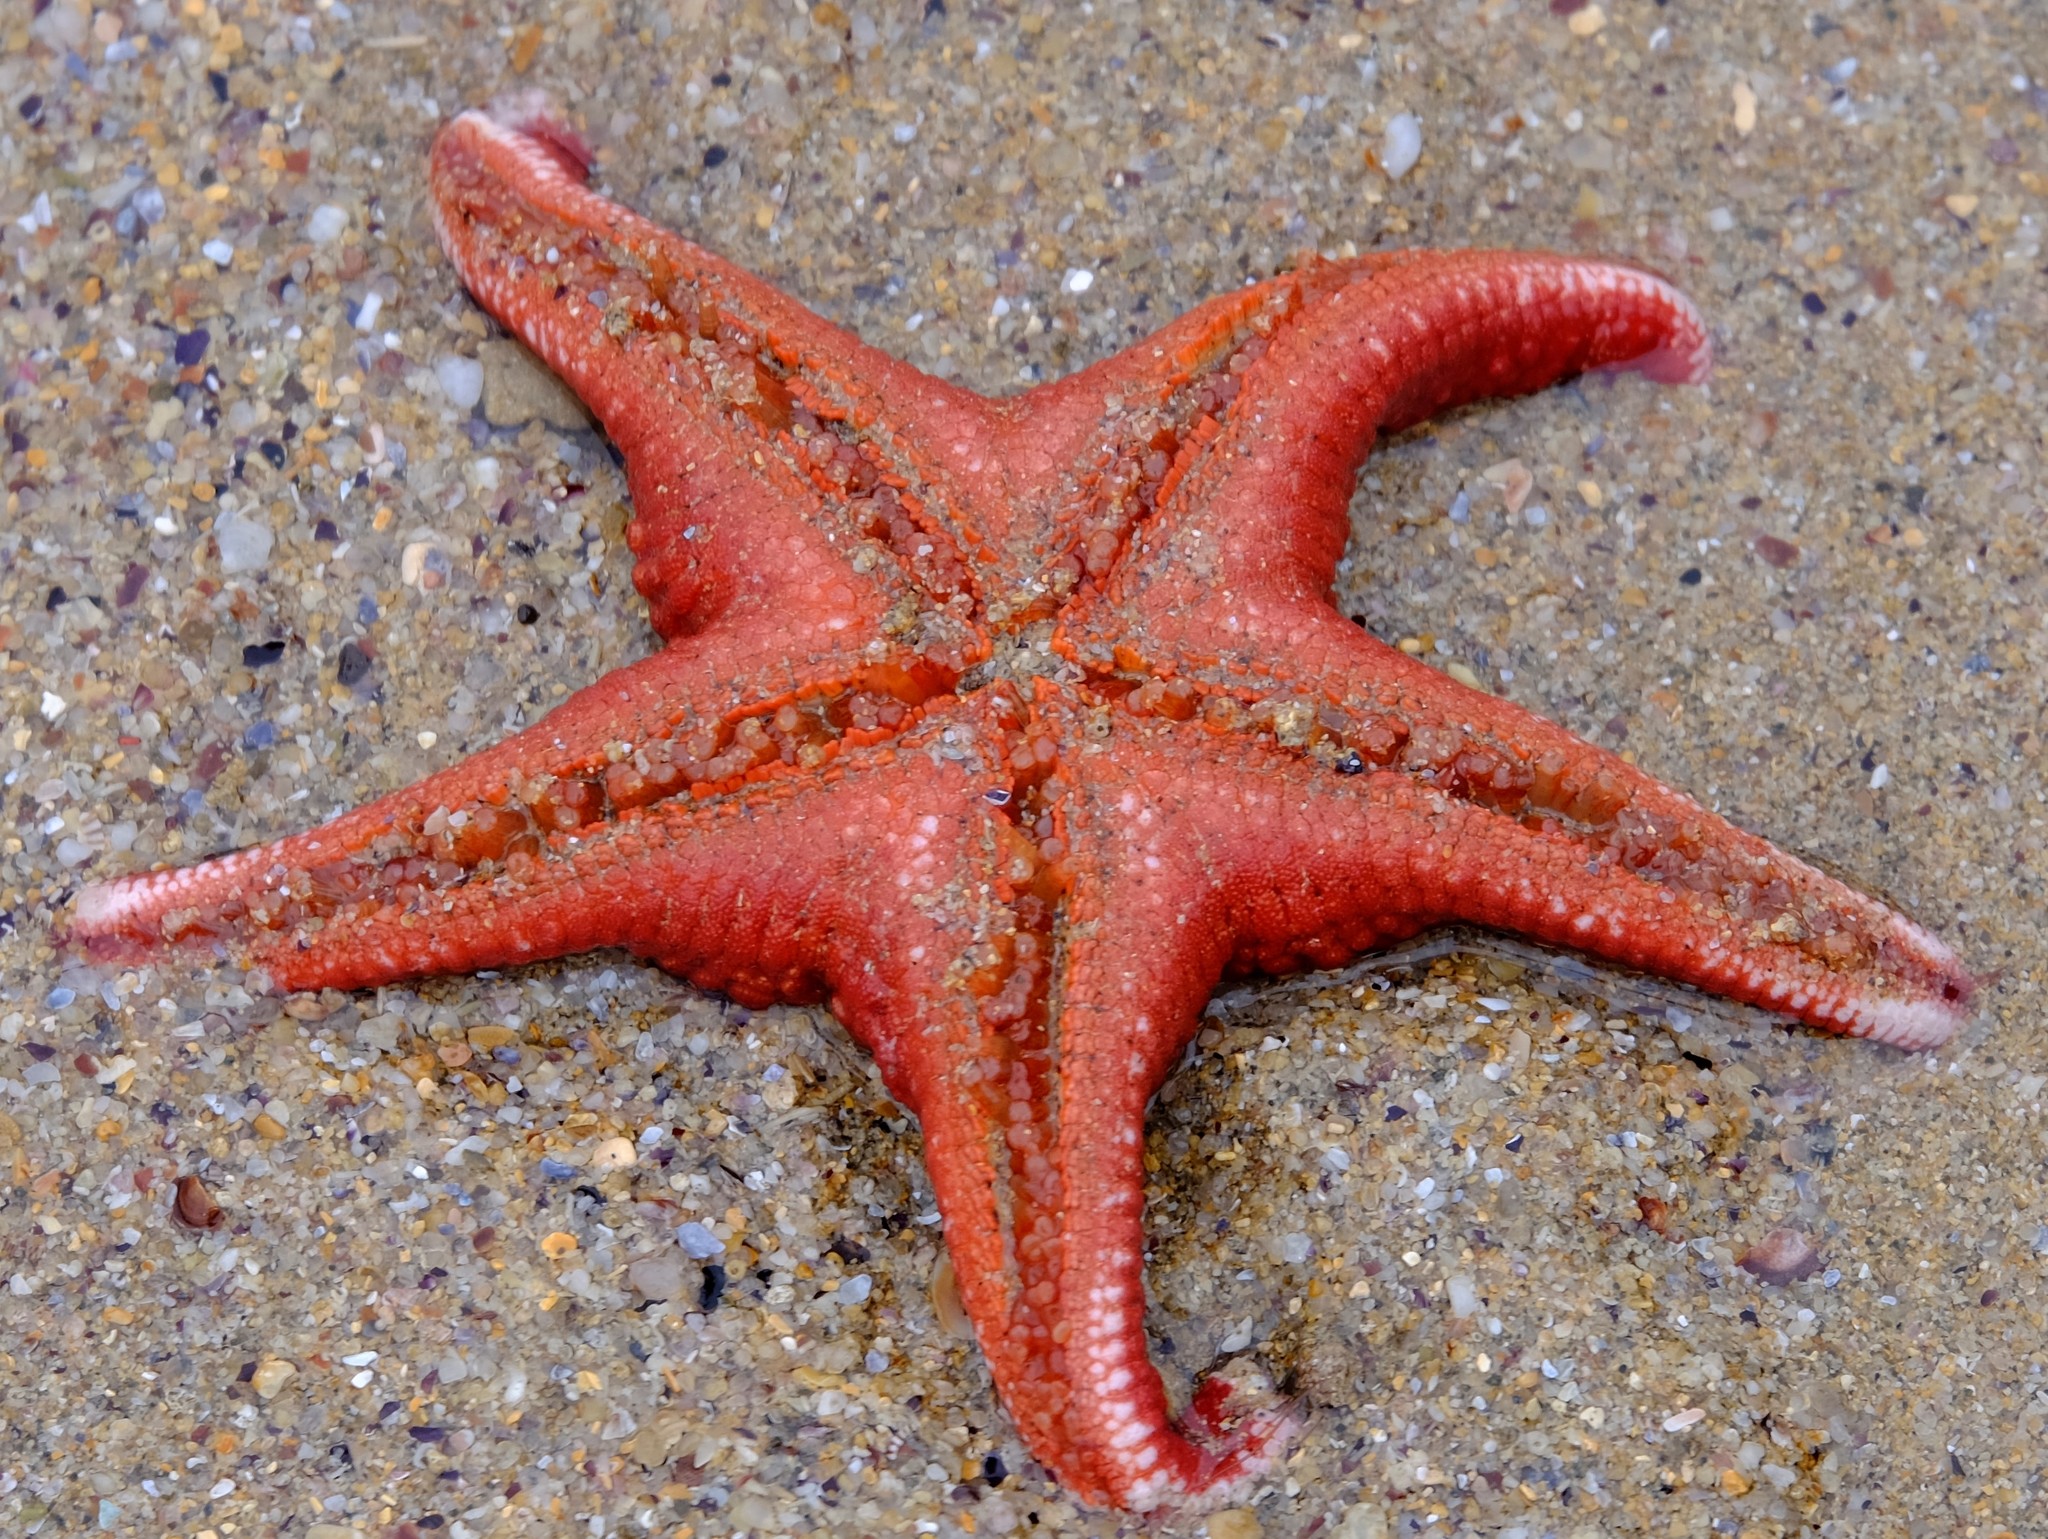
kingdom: Animalia
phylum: Echinodermata
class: Asteroidea
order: Valvatida
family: Goniasteridae
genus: Nectria
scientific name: Nectria ocellata
